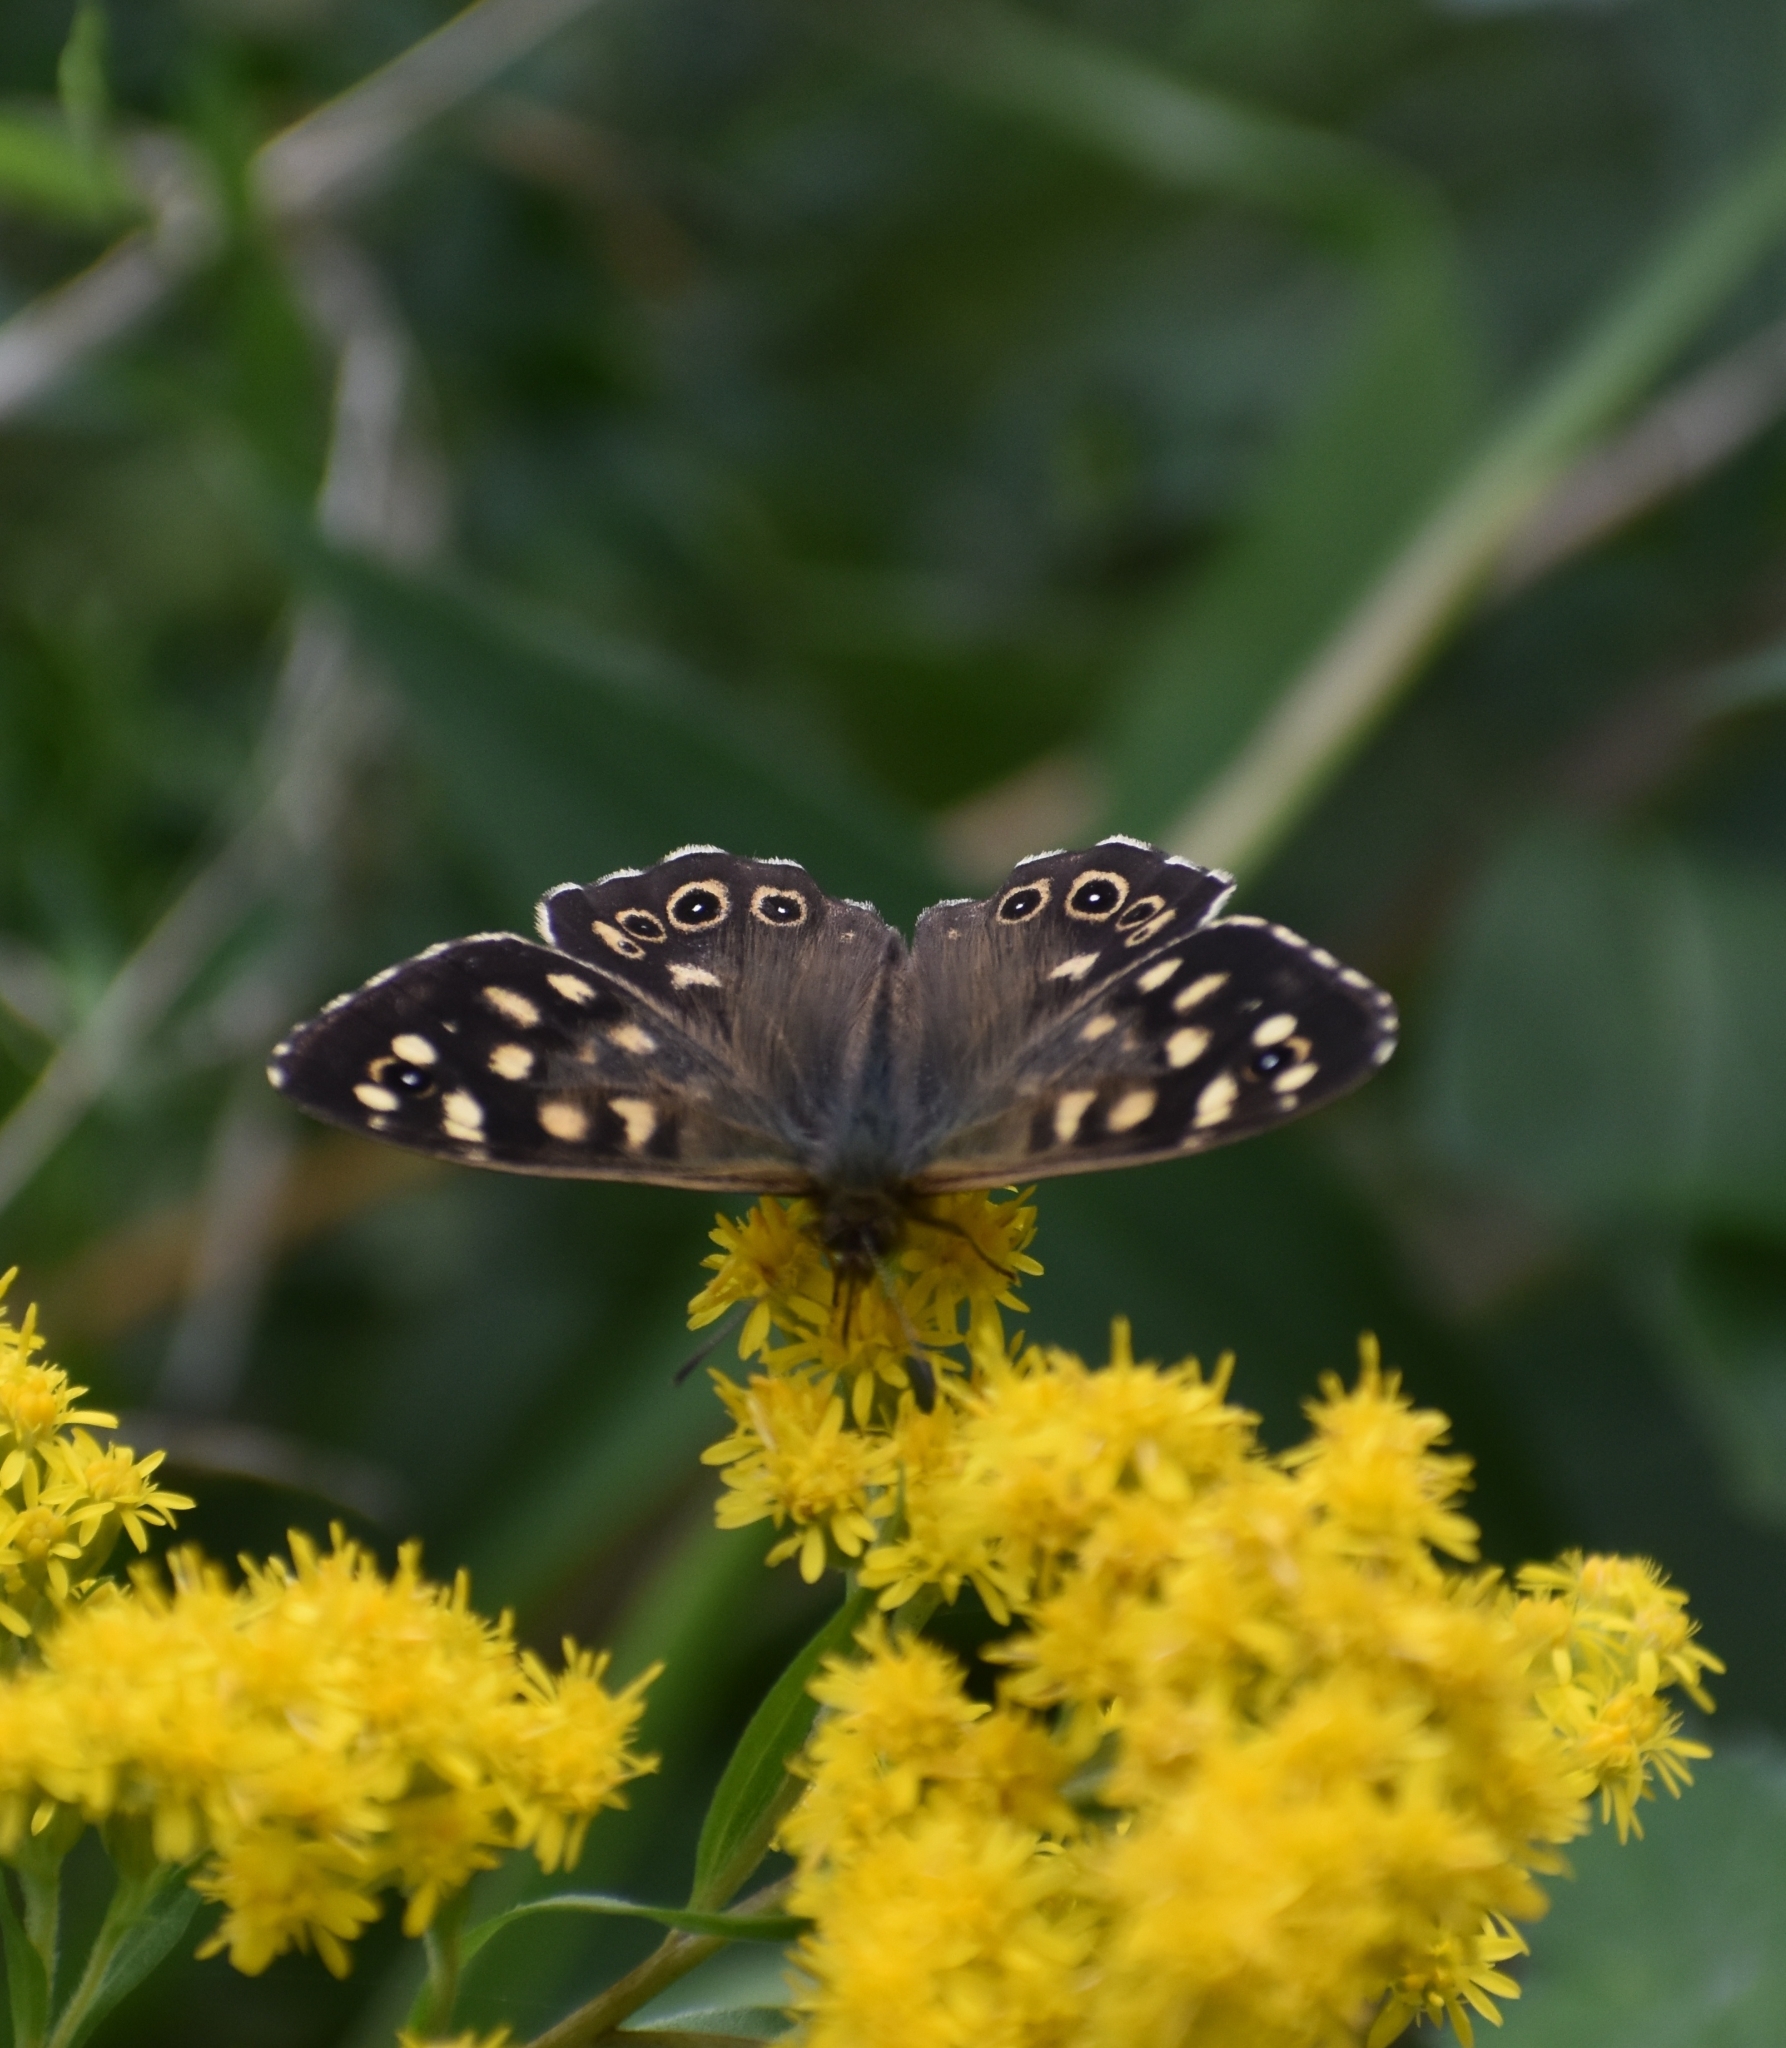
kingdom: Animalia
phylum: Arthropoda
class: Insecta
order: Lepidoptera
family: Nymphalidae
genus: Pararge
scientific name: Pararge aegeria
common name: Speckled wood
